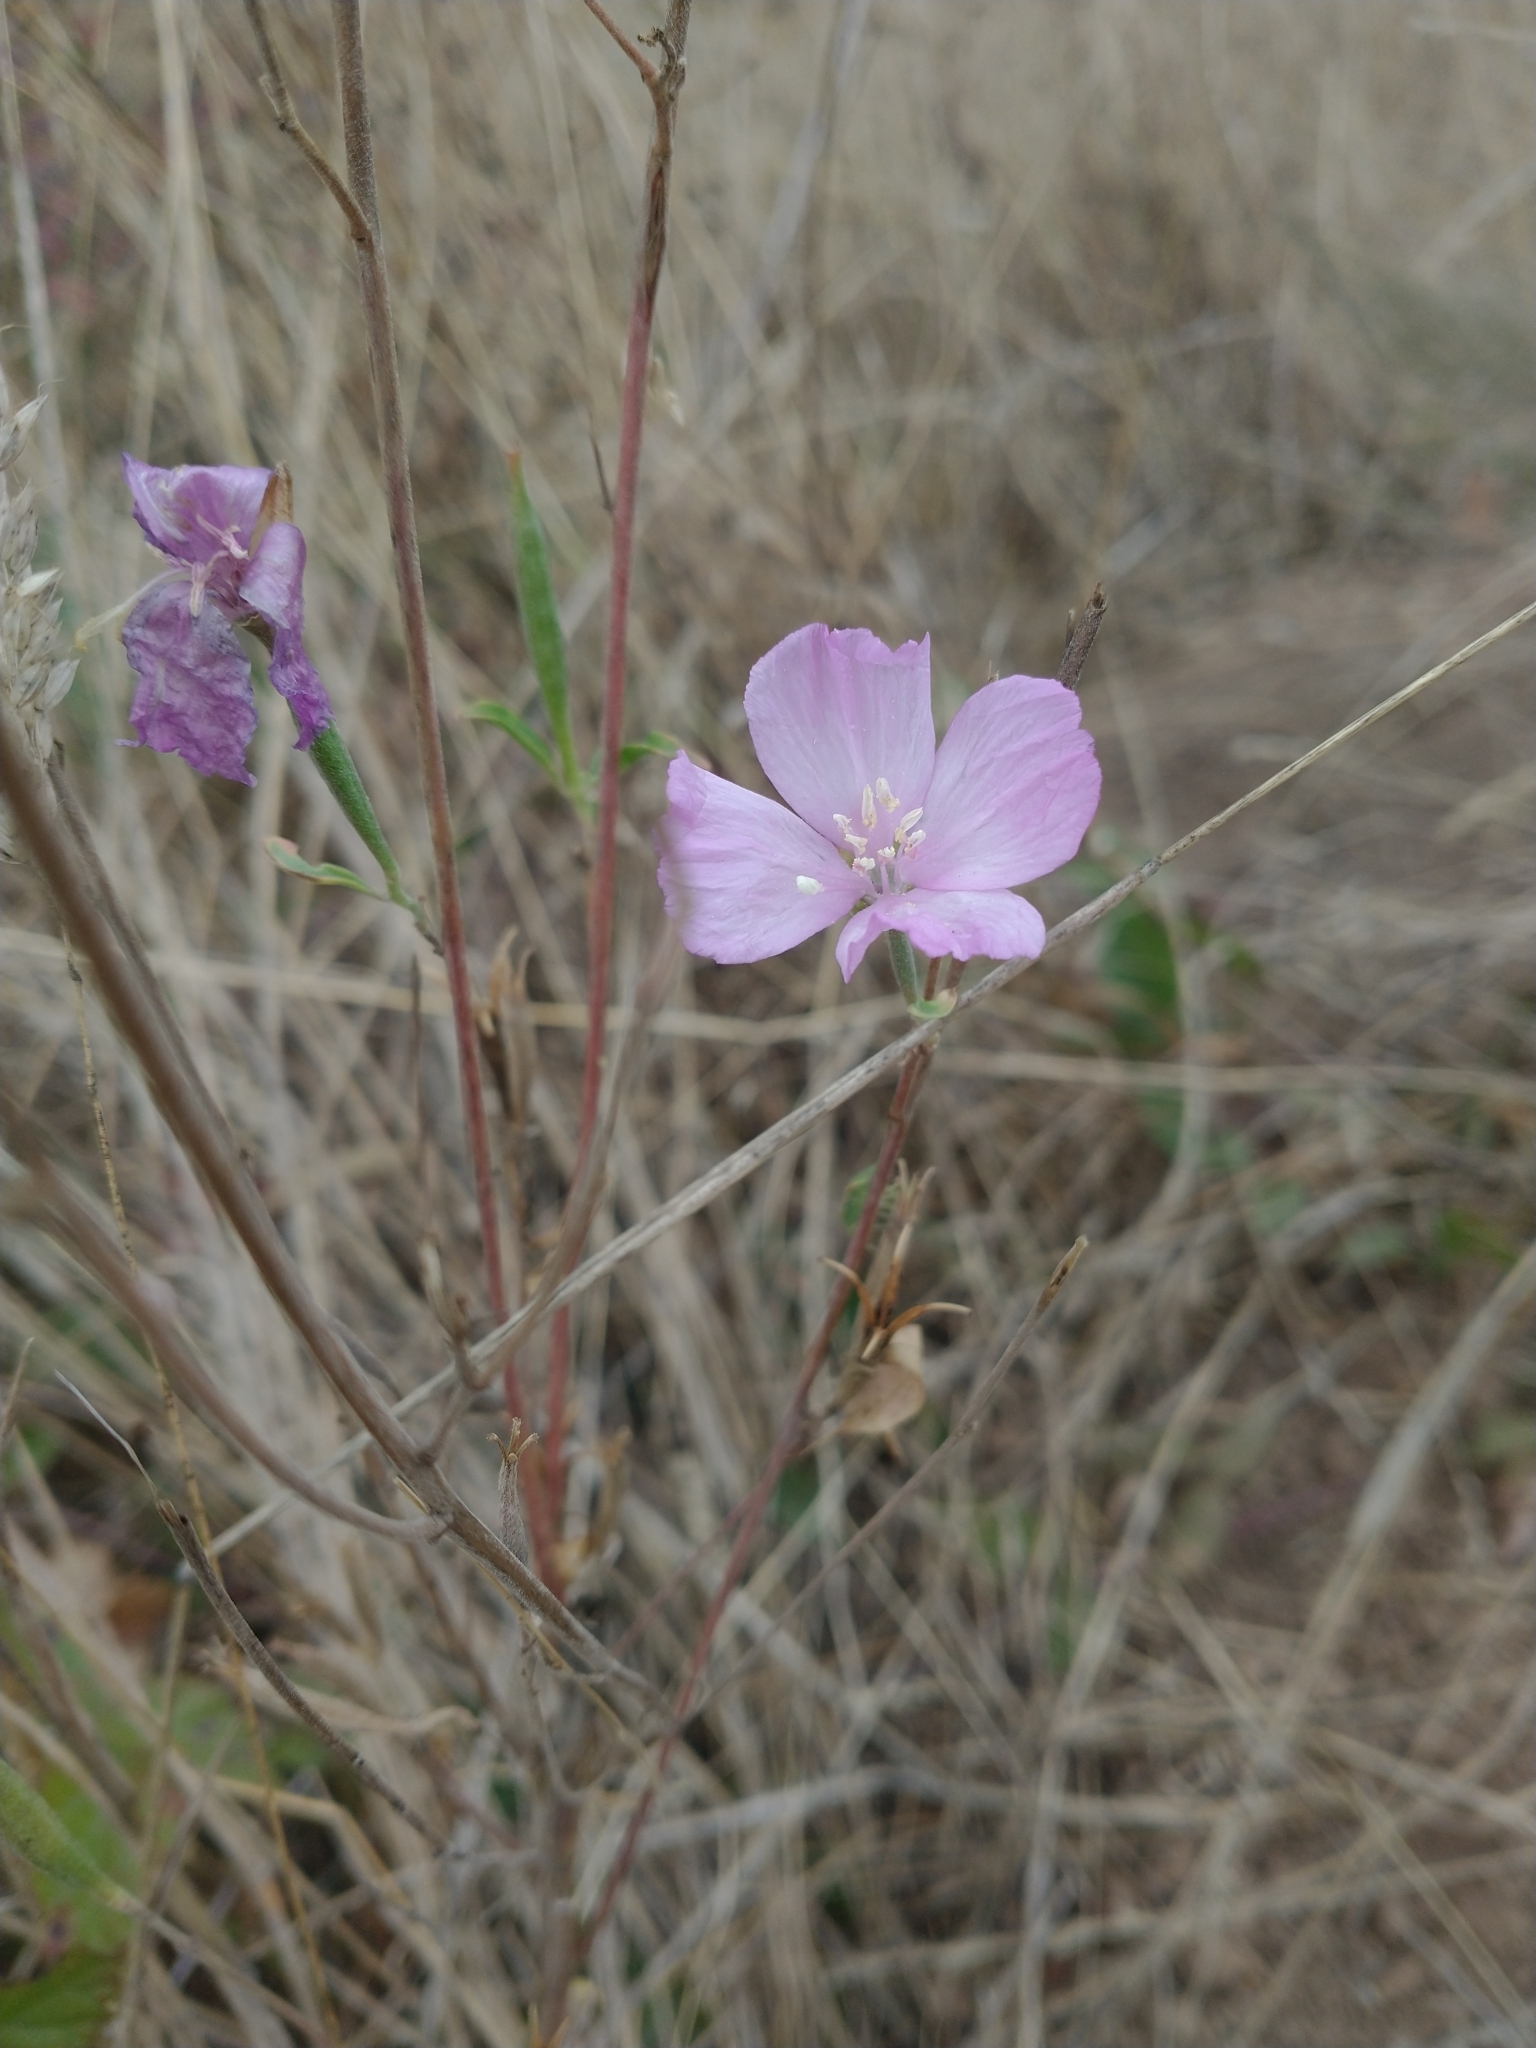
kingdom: Plantae
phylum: Tracheophyta
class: Magnoliopsida
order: Myrtales
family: Onagraceae
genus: Clarkia
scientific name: Clarkia amoena
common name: Godetia
